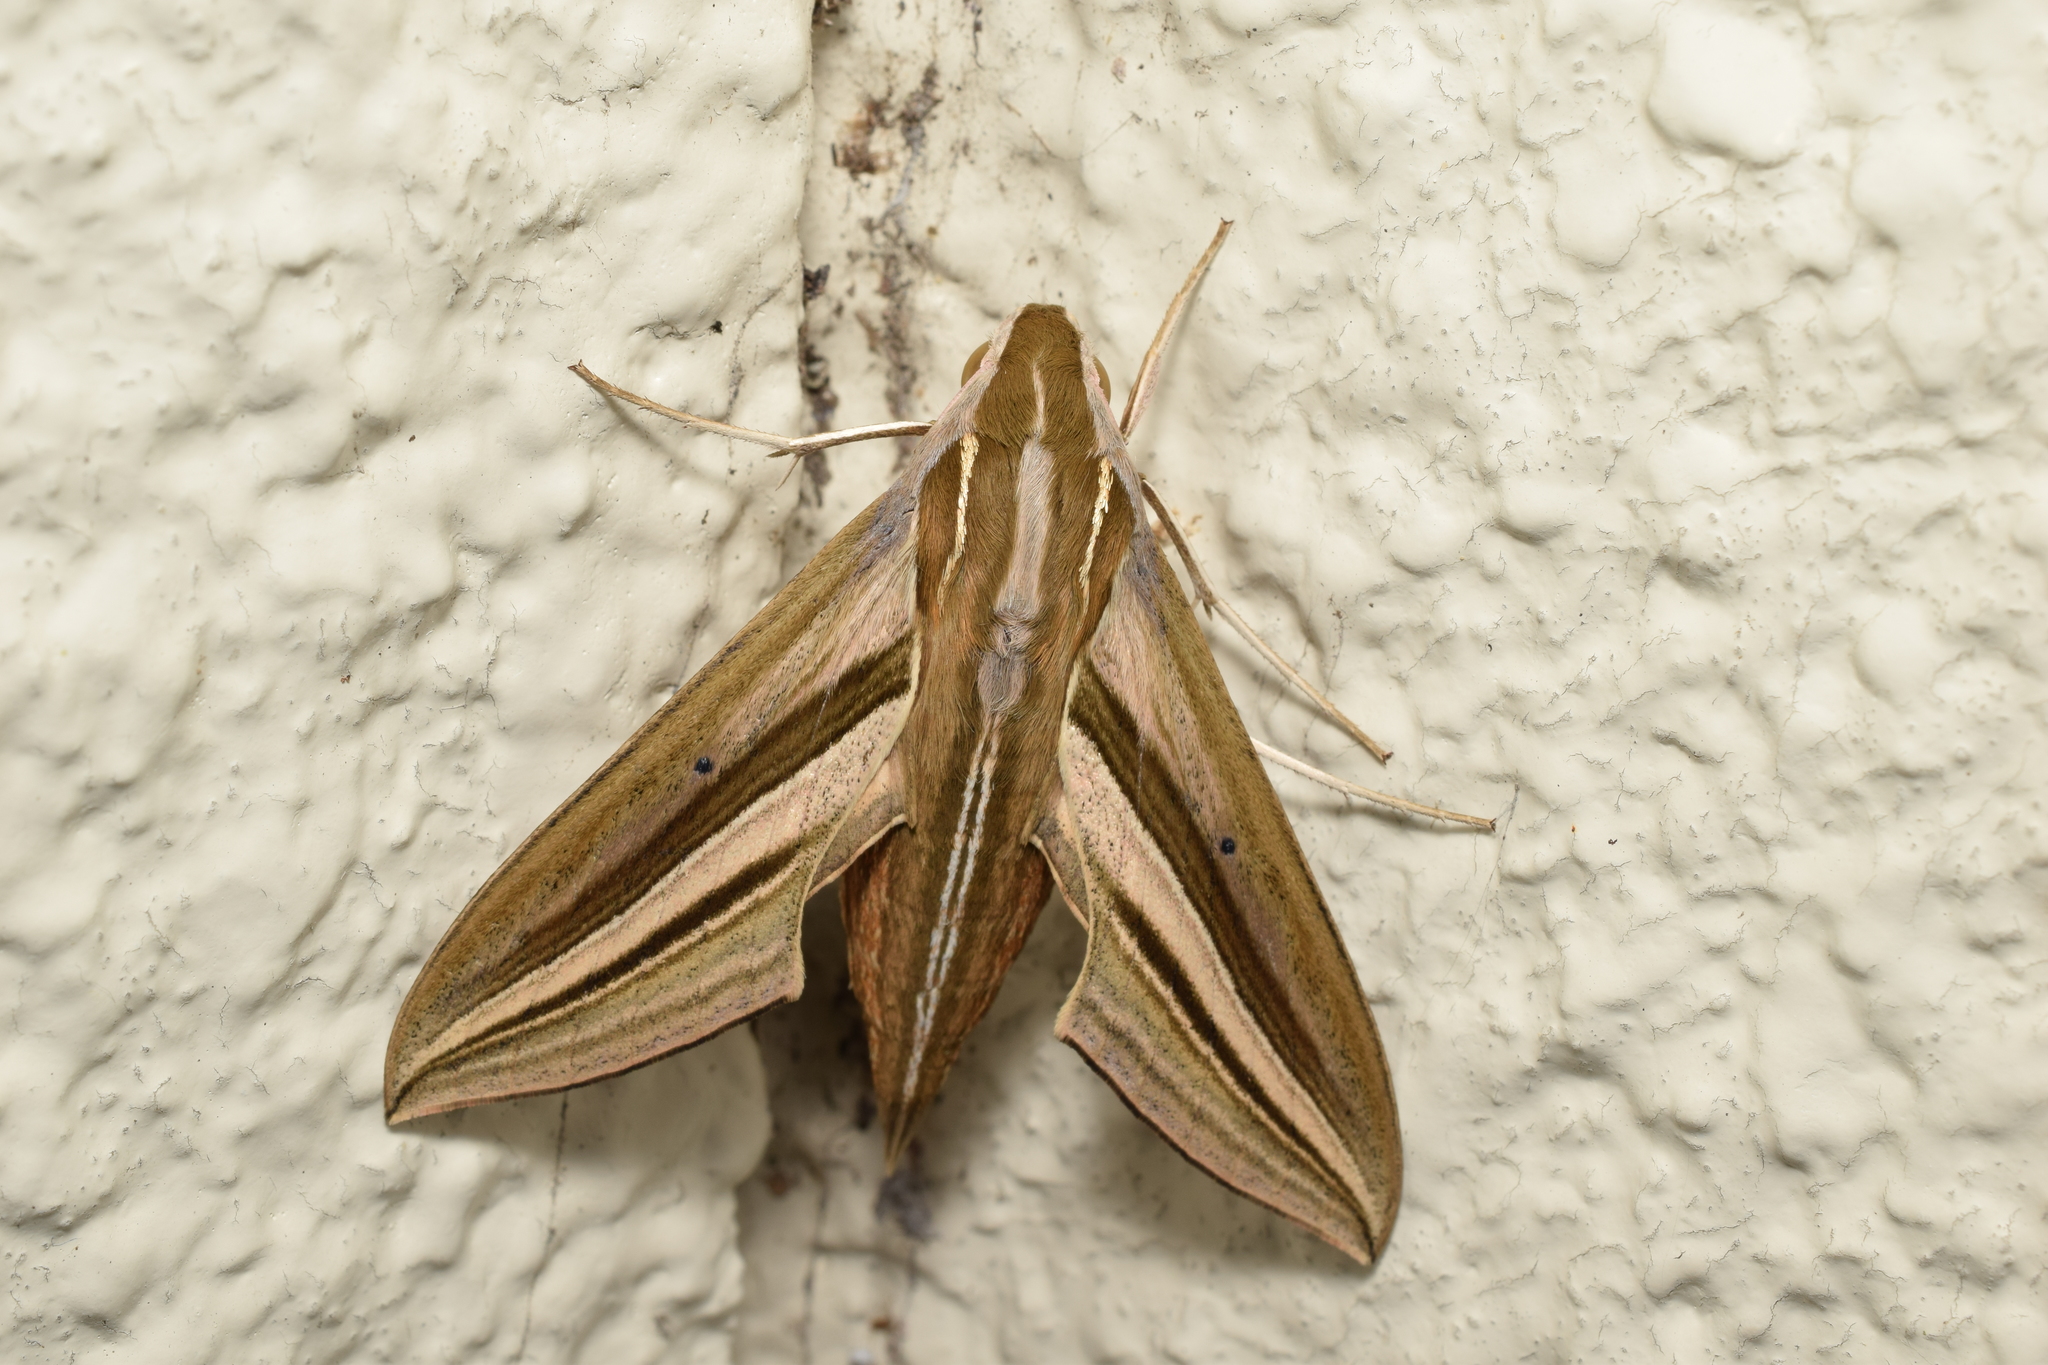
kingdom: Animalia
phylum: Arthropoda
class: Insecta
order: Lepidoptera
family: Sphingidae
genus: Theretra
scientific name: Theretra oldenlandiae
